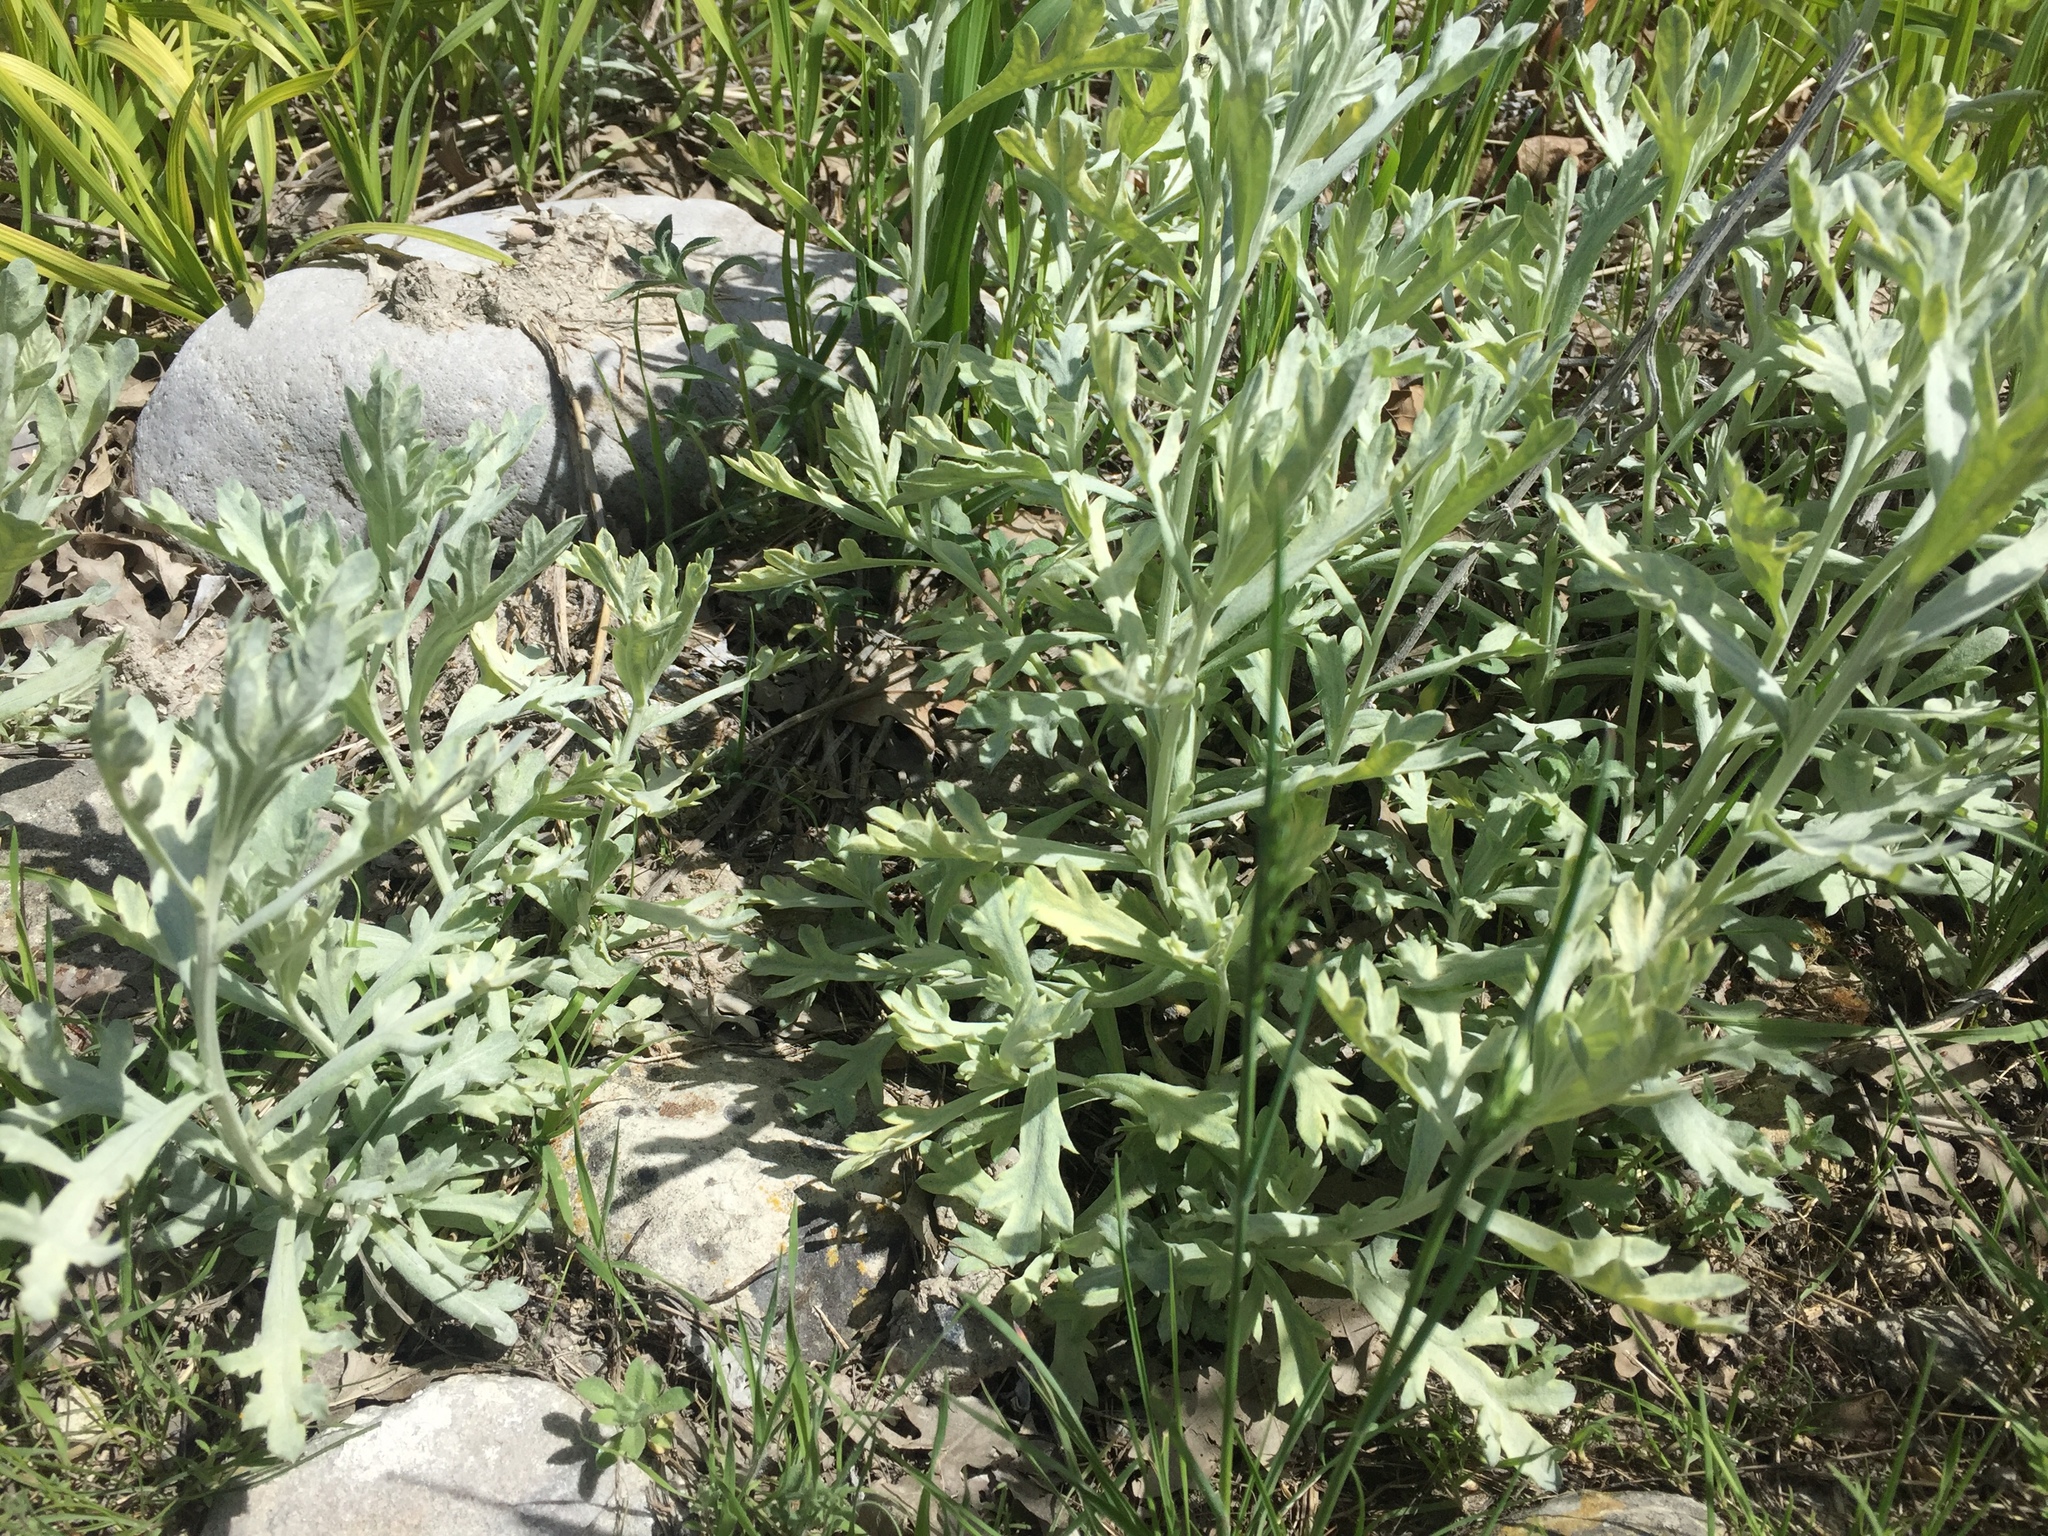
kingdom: Plantae
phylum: Tracheophyta
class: Magnoliopsida
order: Asterales
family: Asteraceae
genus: Artemisia
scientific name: Artemisia ludoviciana
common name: Western mugwort
